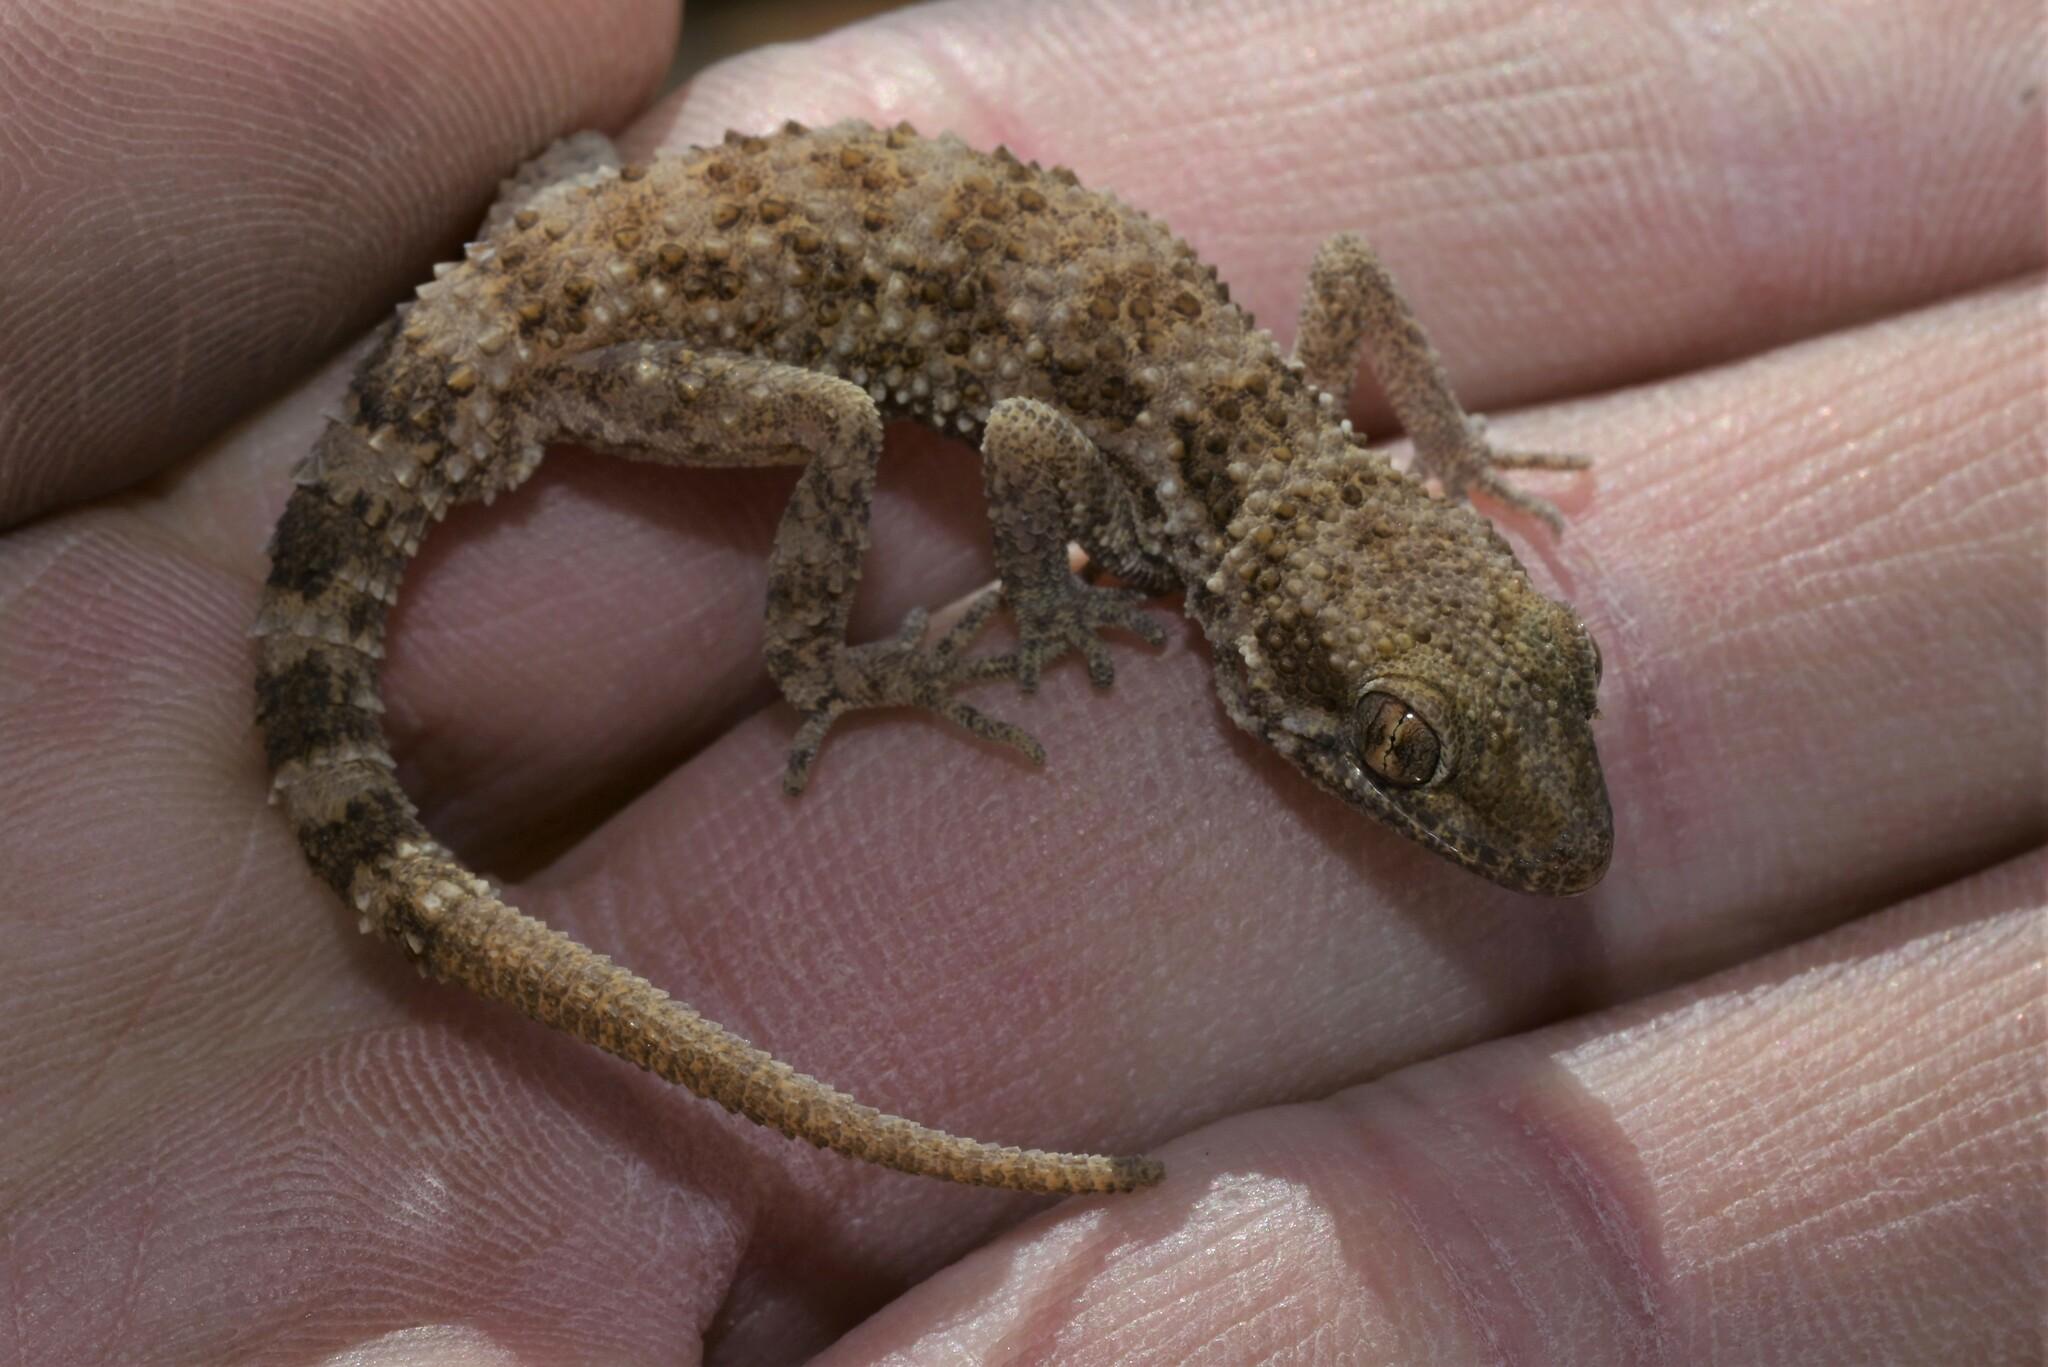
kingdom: Animalia
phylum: Chordata
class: Squamata
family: Gekkonidae
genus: Bunopus
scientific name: Bunopus tuberculatus
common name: Southern tuberculated gecko
